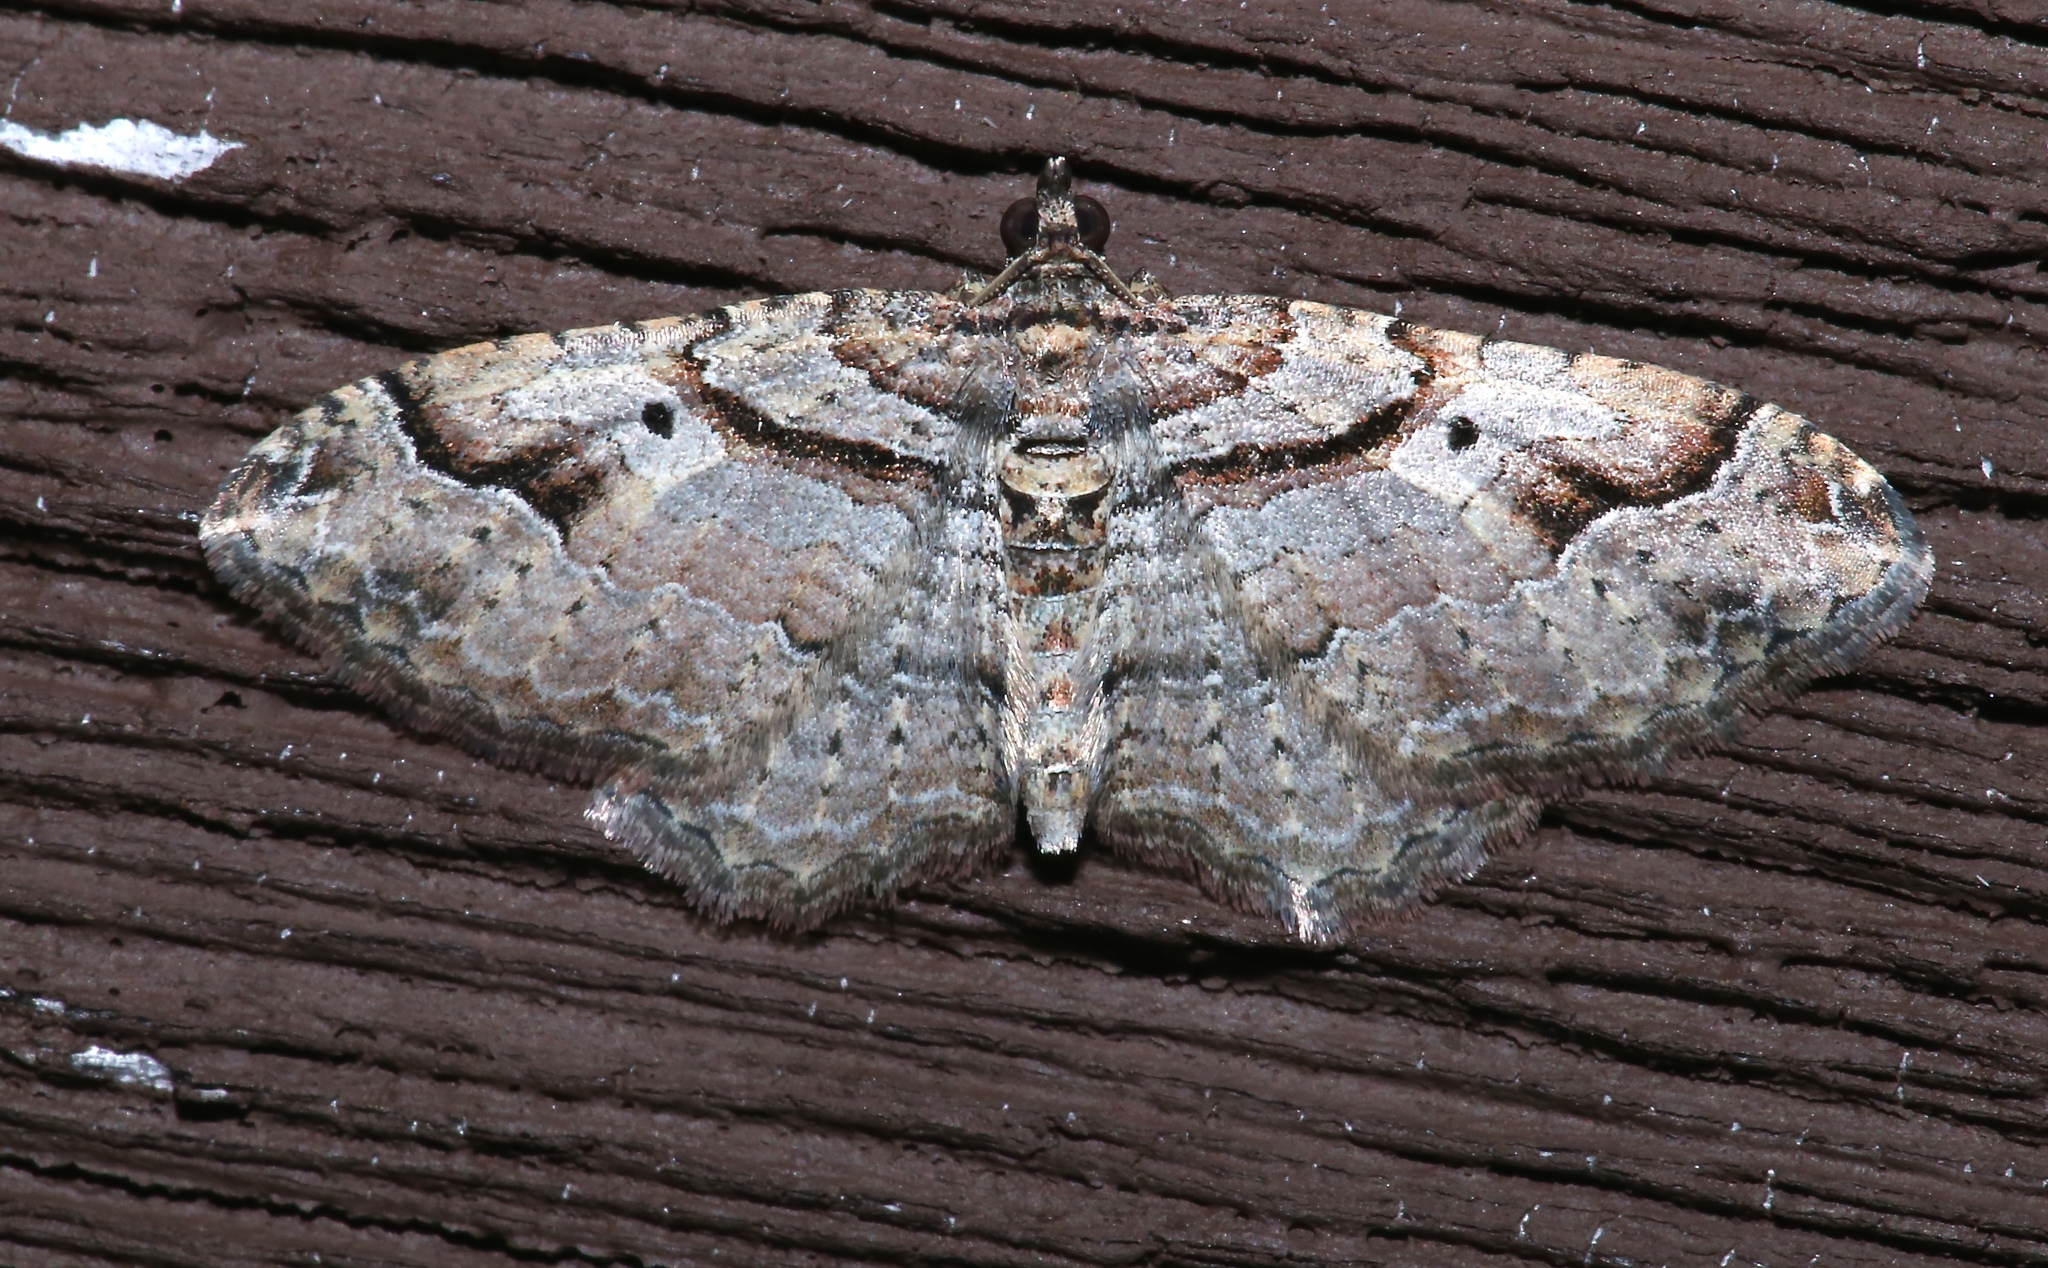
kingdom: Animalia
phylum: Arthropoda
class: Insecta
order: Lepidoptera
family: Geometridae
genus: Costaconvexa
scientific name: Costaconvexa centrostrigaria
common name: Bent-line carpet
